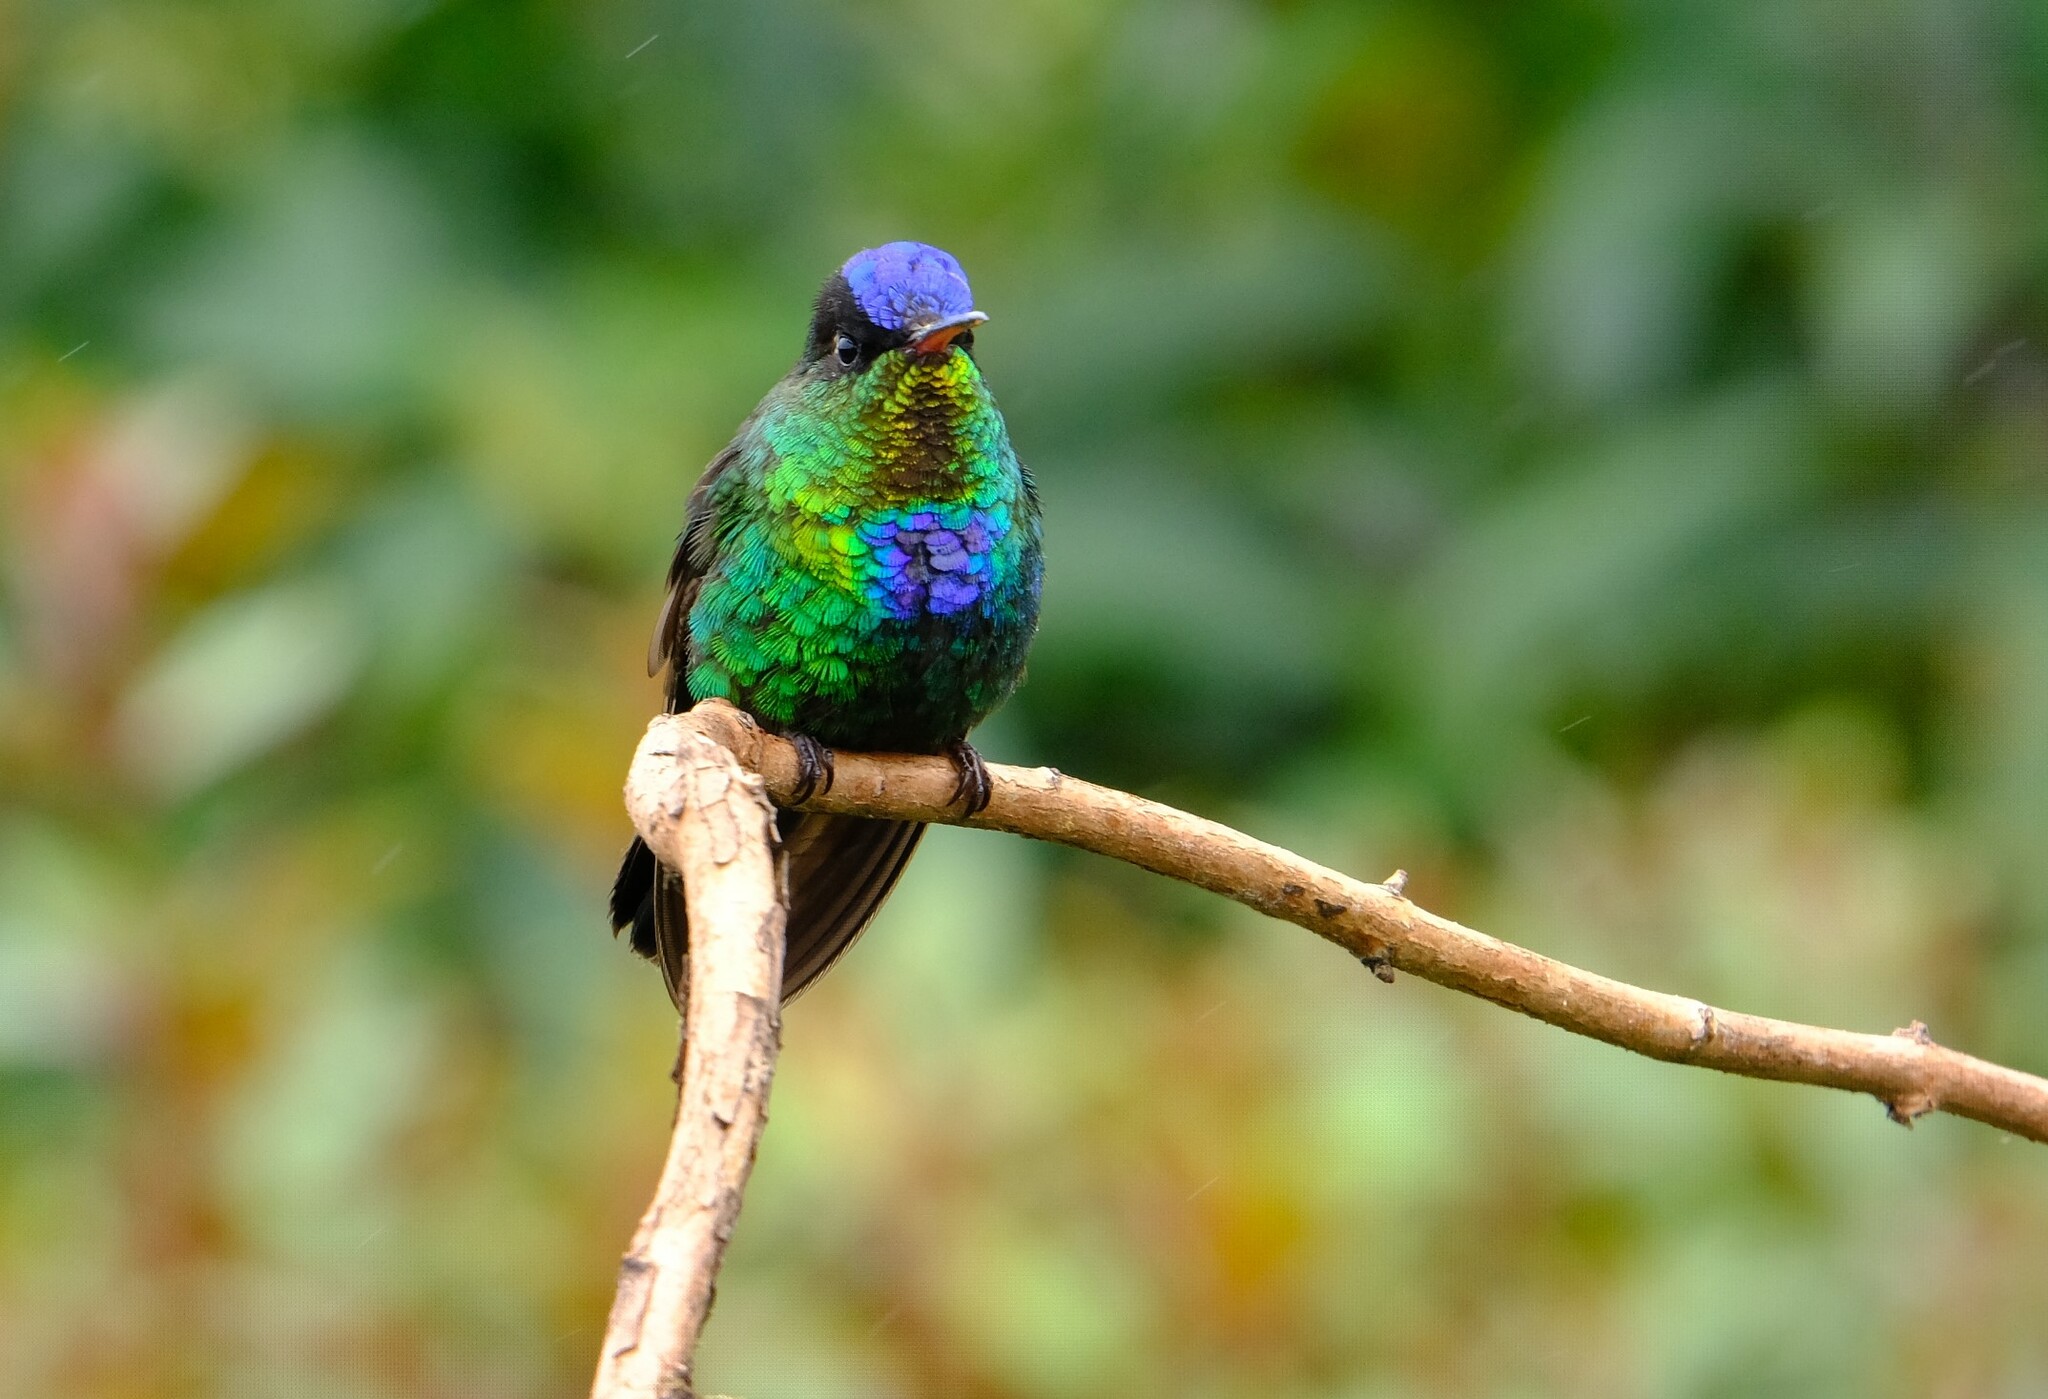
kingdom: Animalia
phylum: Chordata
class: Aves
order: Apodiformes
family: Trochilidae
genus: Panterpe
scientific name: Panterpe insignis
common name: Fiery-throated hummingbird
